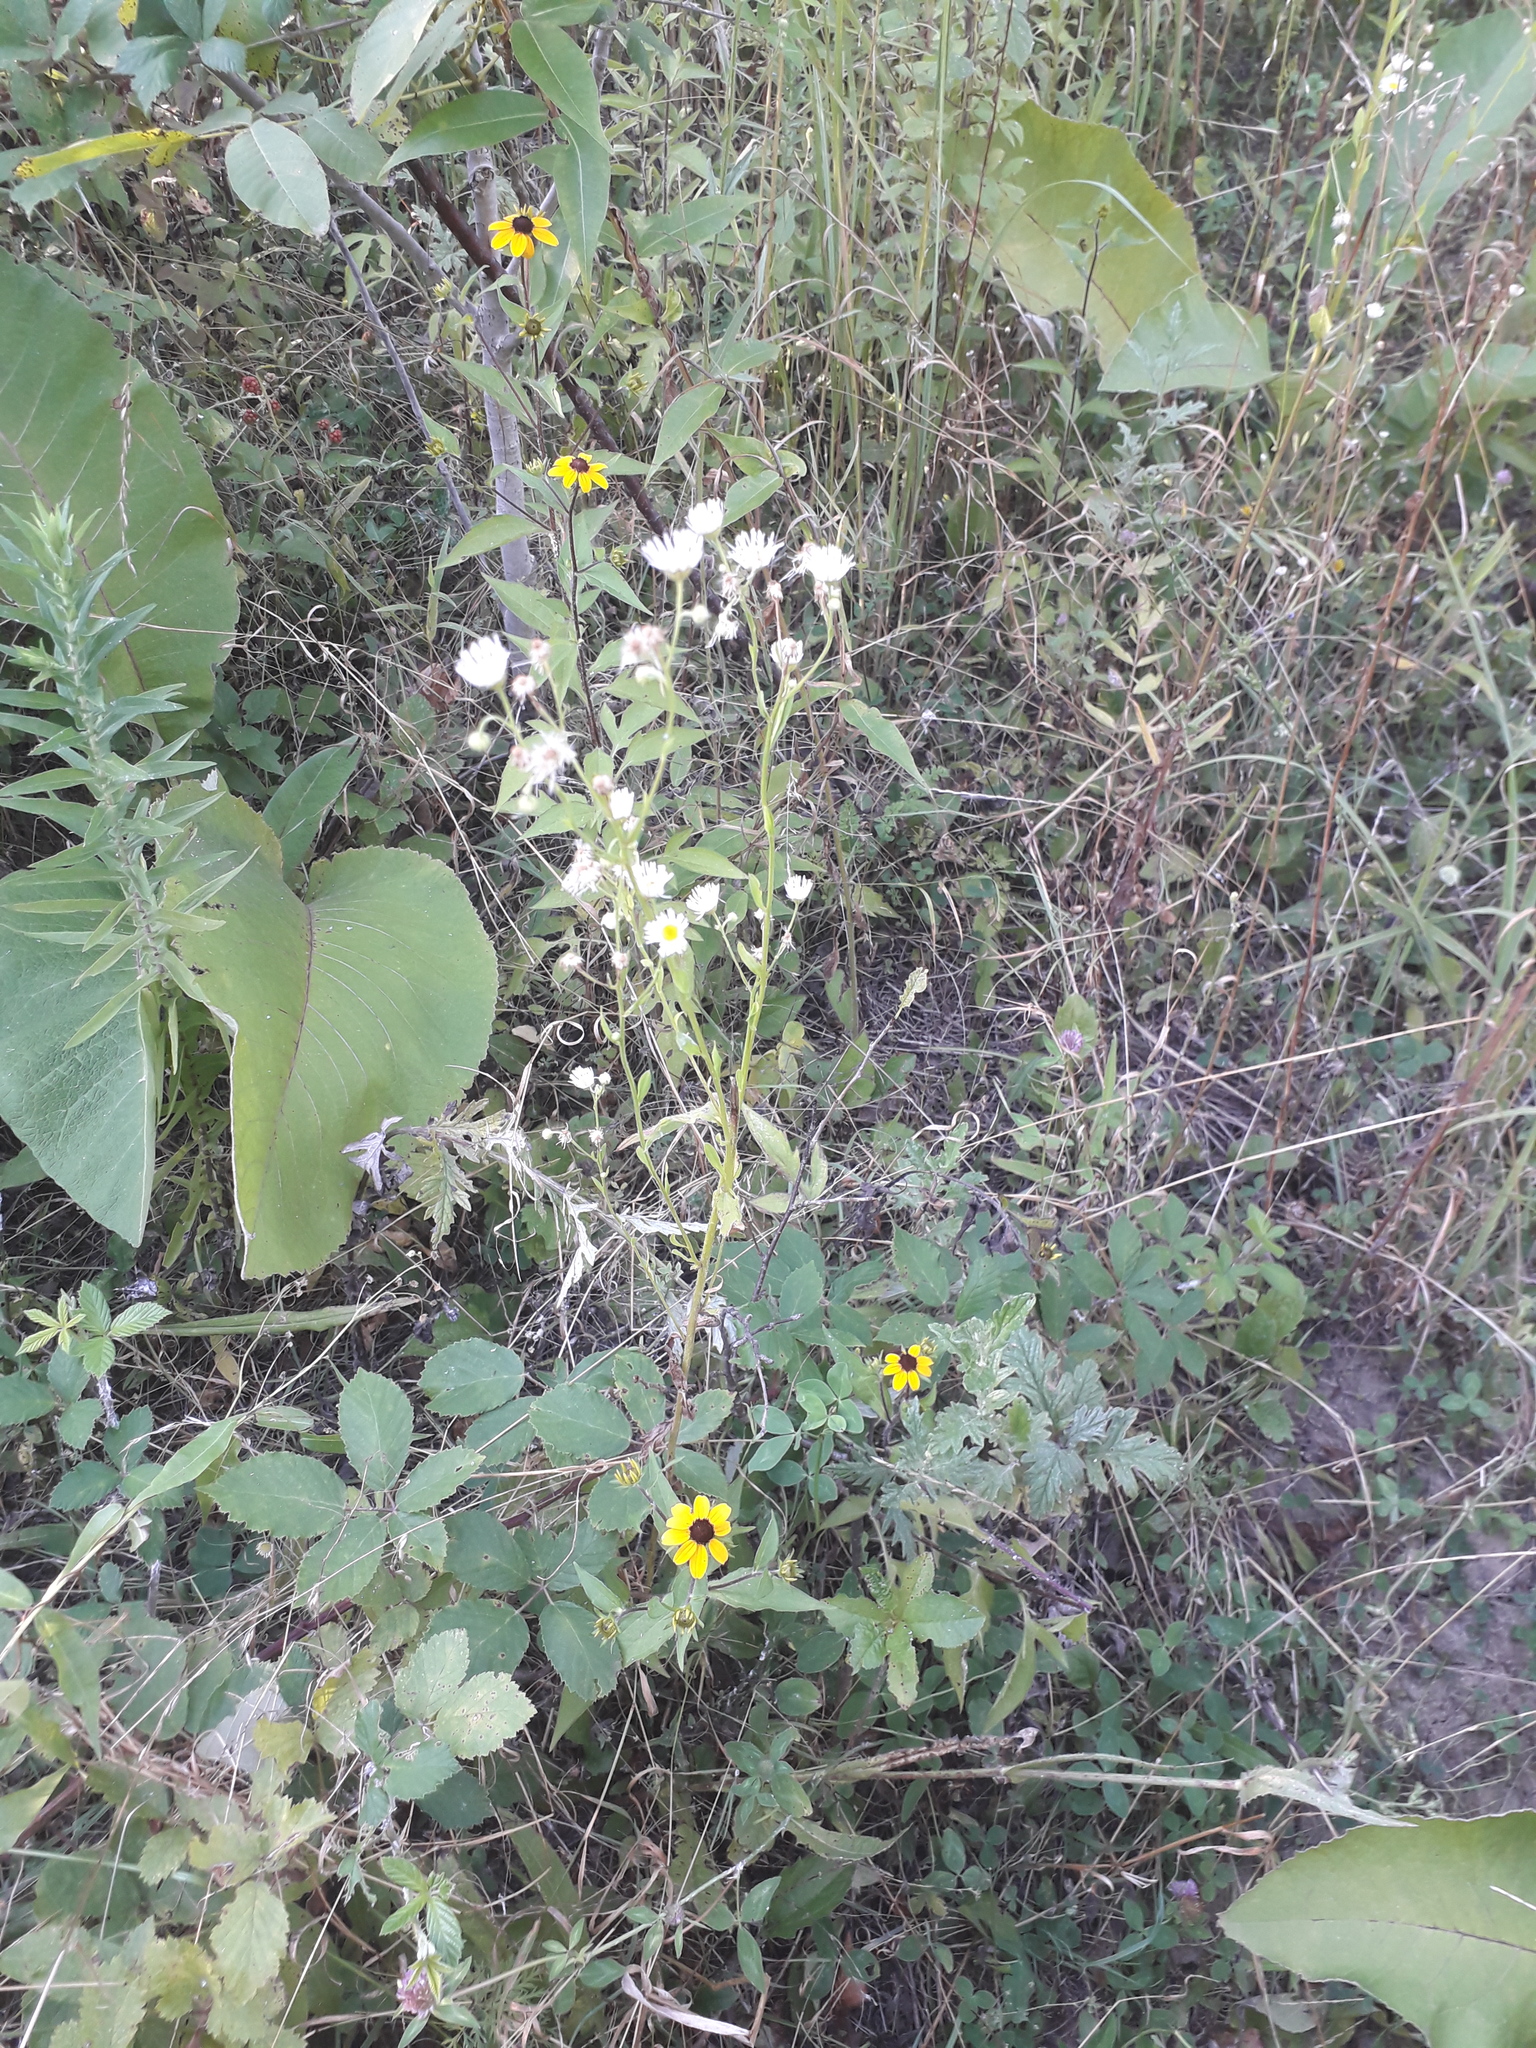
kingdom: Plantae
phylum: Tracheophyta
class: Magnoliopsida
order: Asterales
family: Asteraceae
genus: Erigeron
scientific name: Erigeron annuus
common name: Tall fleabane
